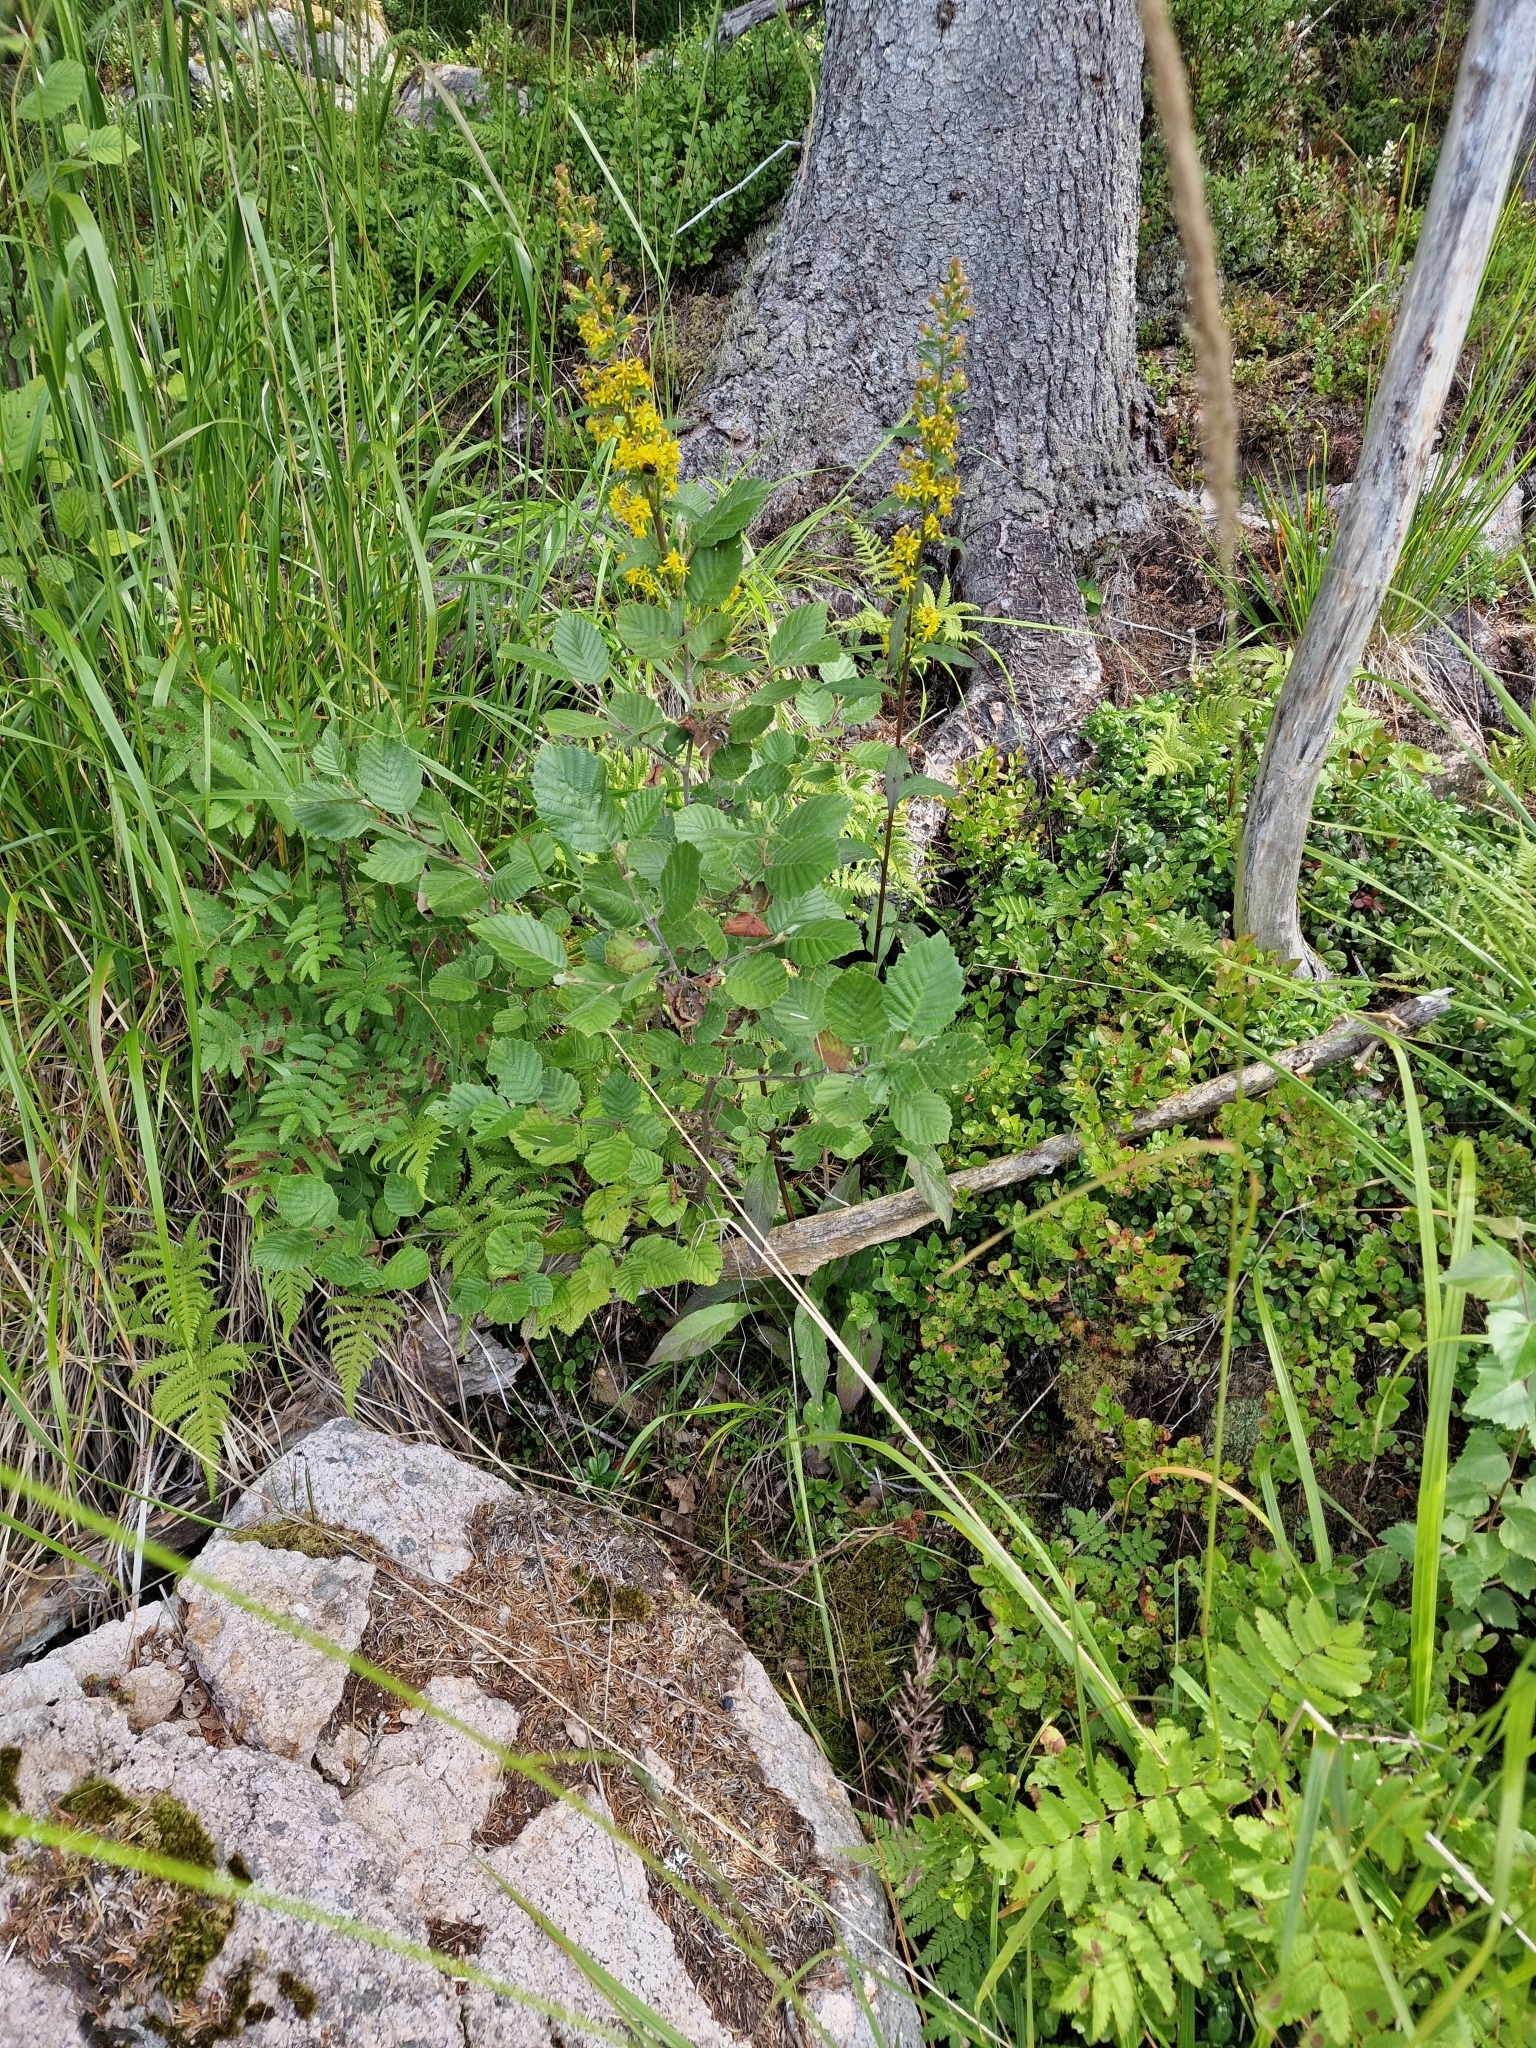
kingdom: Plantae
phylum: Tracheophyta
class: Magnoliopsida
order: Asterales
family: Asteraceae
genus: Solidago
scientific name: Solidago virgaurea
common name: Goldenrod
